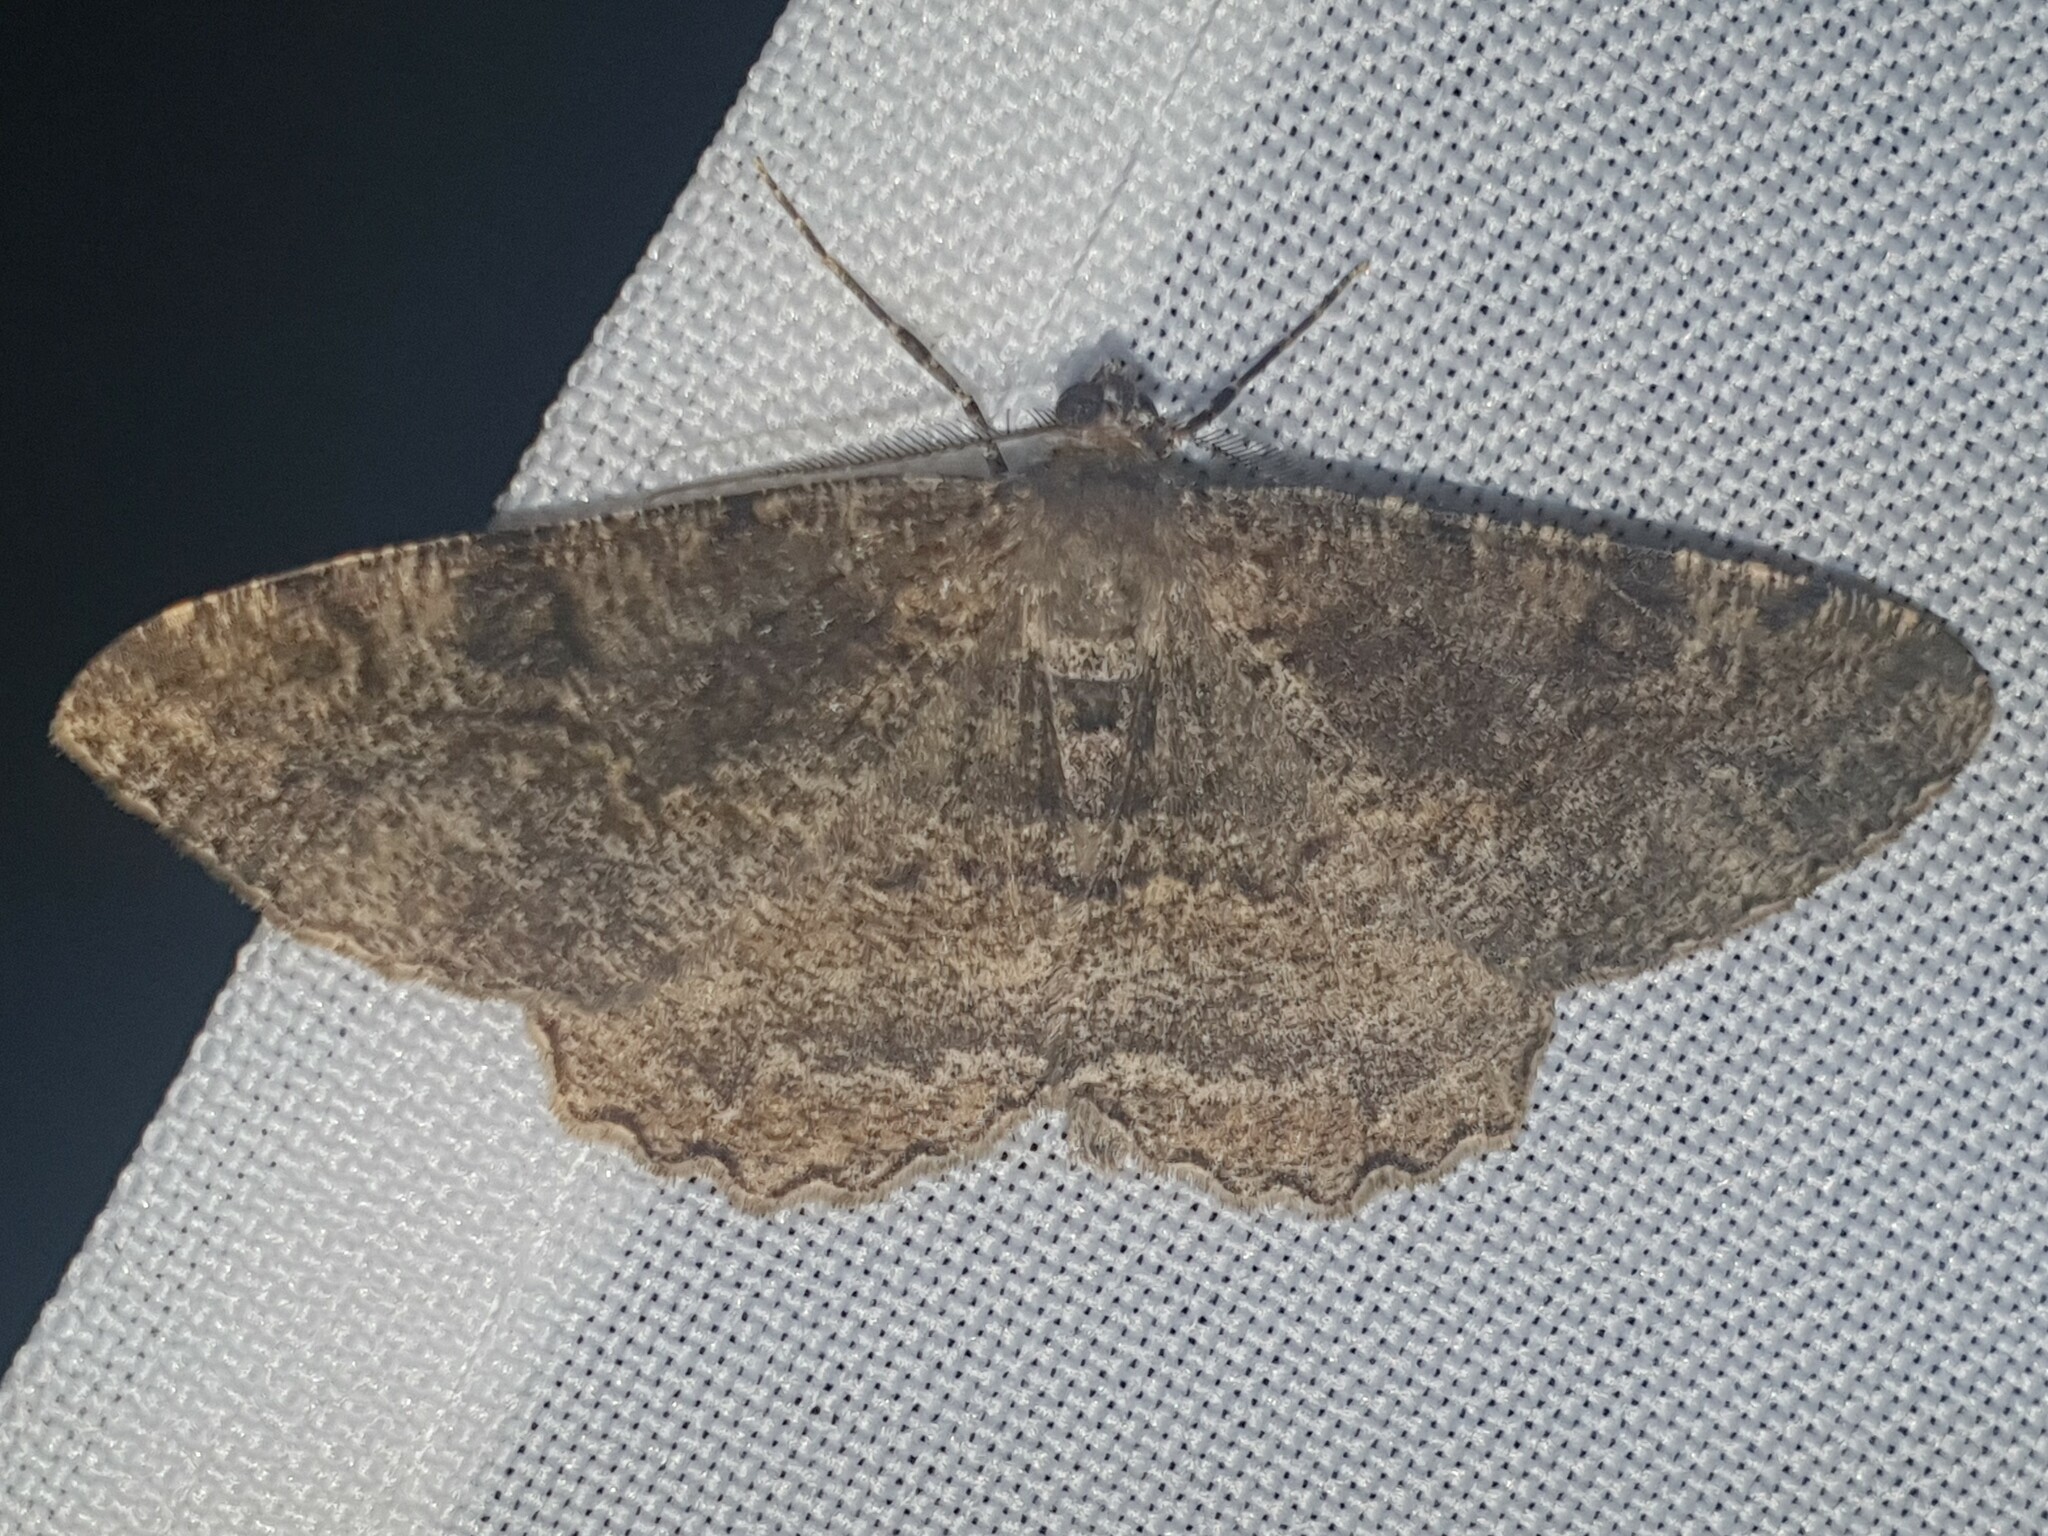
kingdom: Animalia
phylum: Arthropoda
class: Insecta
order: Lepidoptera
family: Geometridae
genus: Alcis
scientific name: Alcis repandata
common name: Mottled beauty
